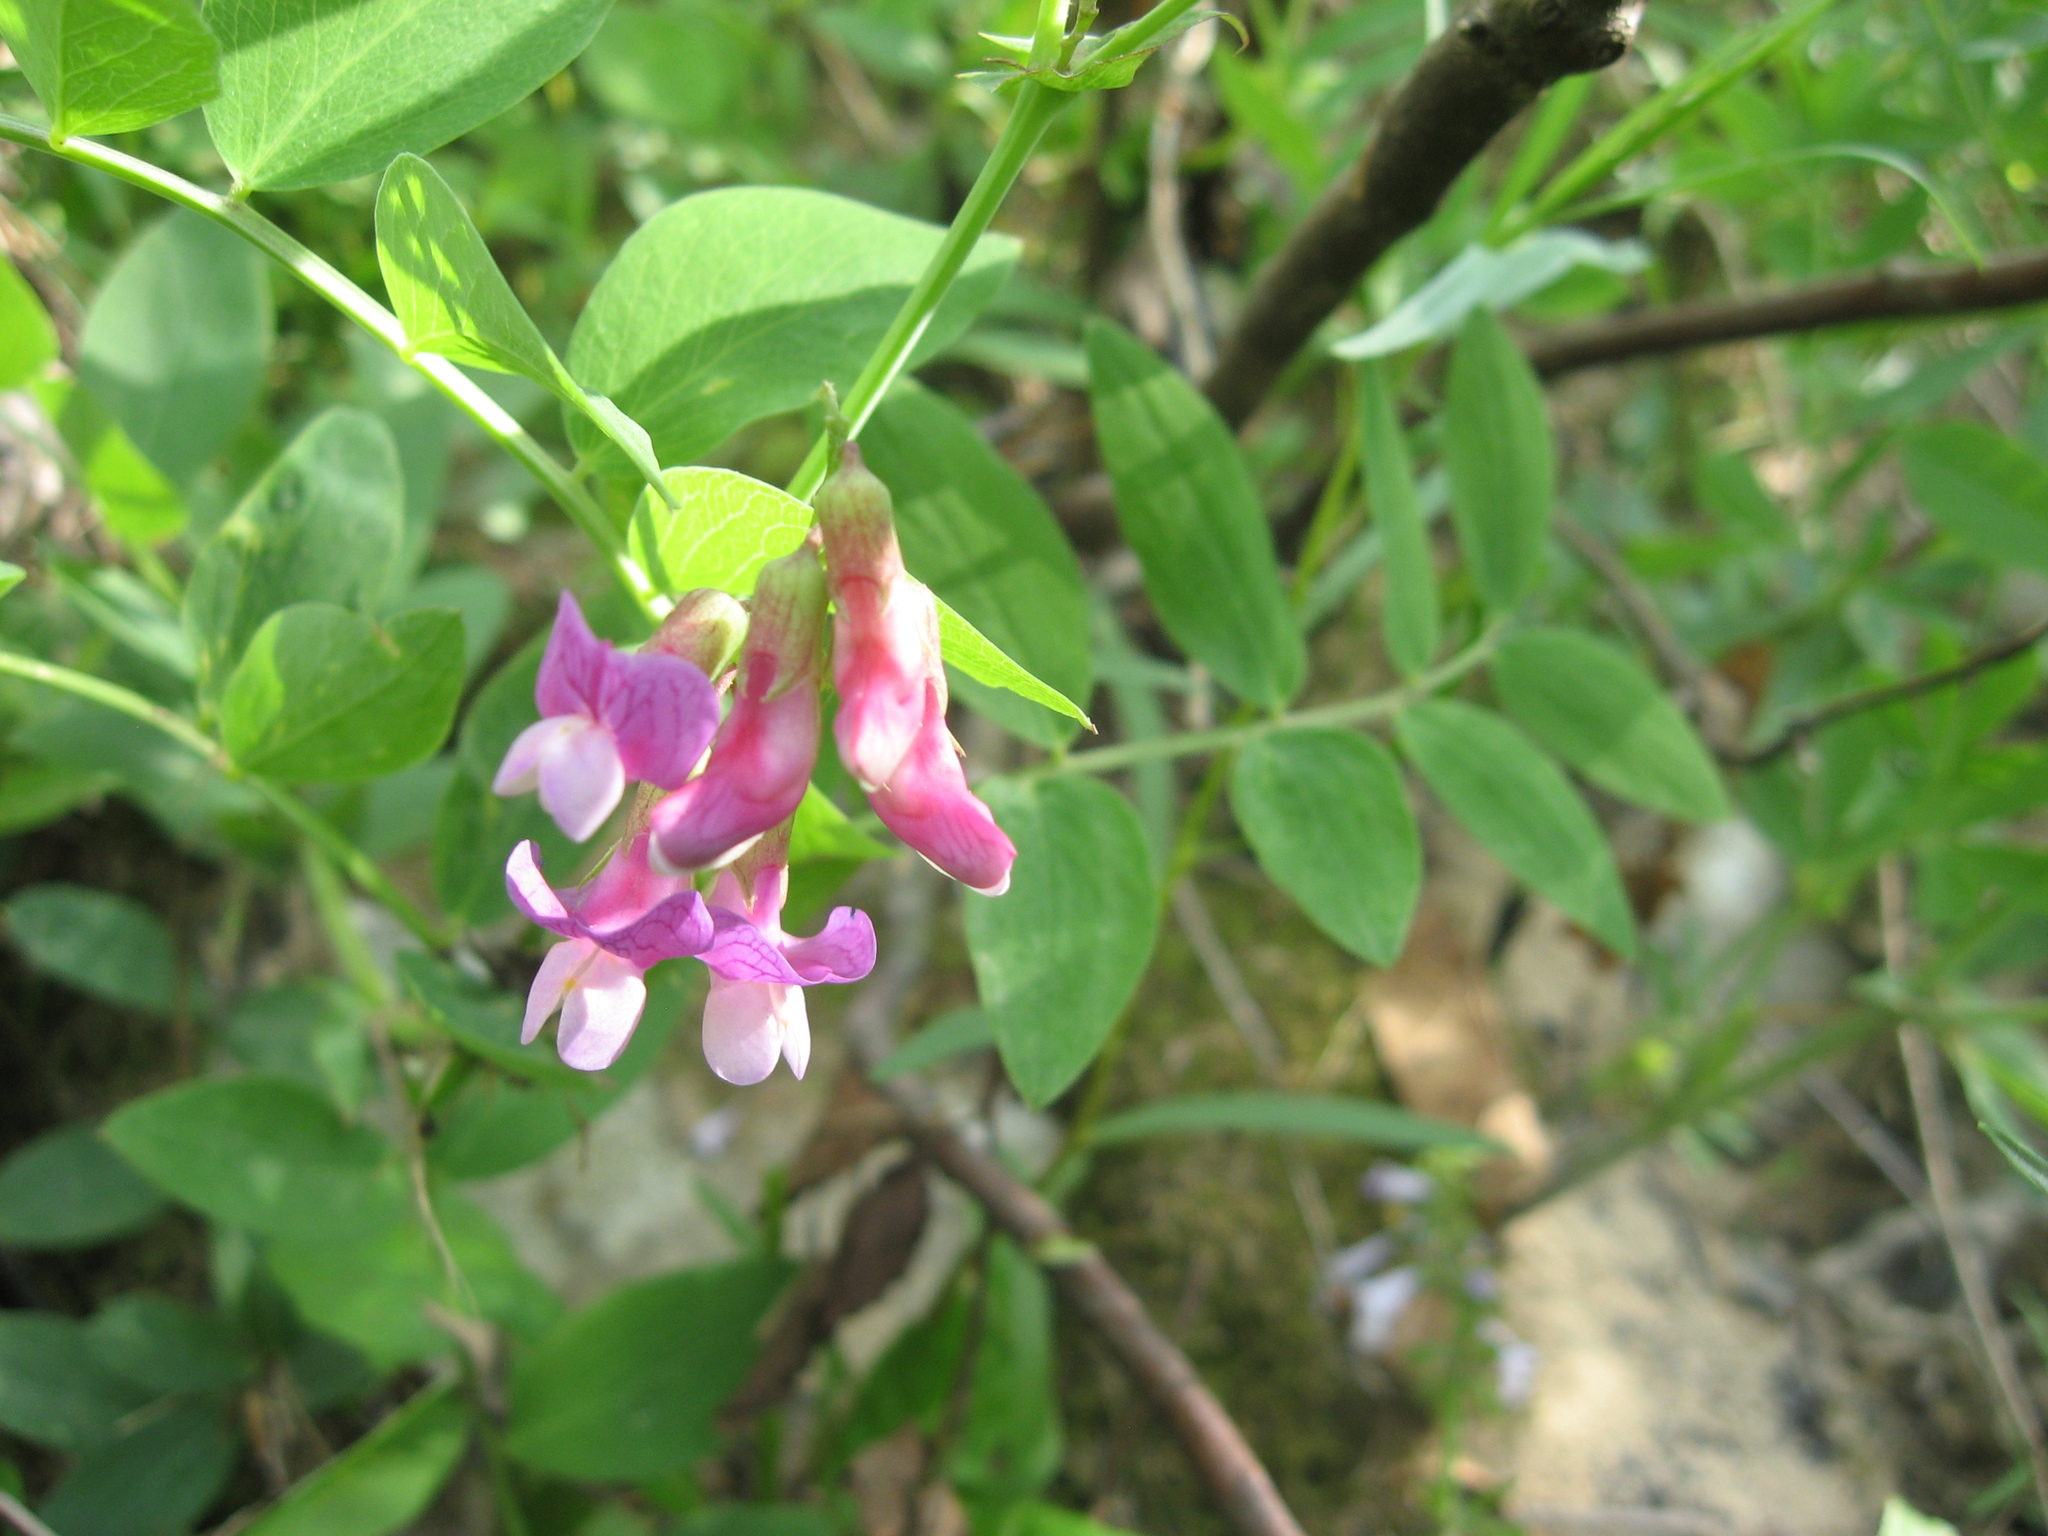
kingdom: Plantae
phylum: Tracheophyta
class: Magnoliopsida
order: Fabales
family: Fabaceae
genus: Lathyrus
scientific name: Lathyrus palustris
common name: Marsh pea
